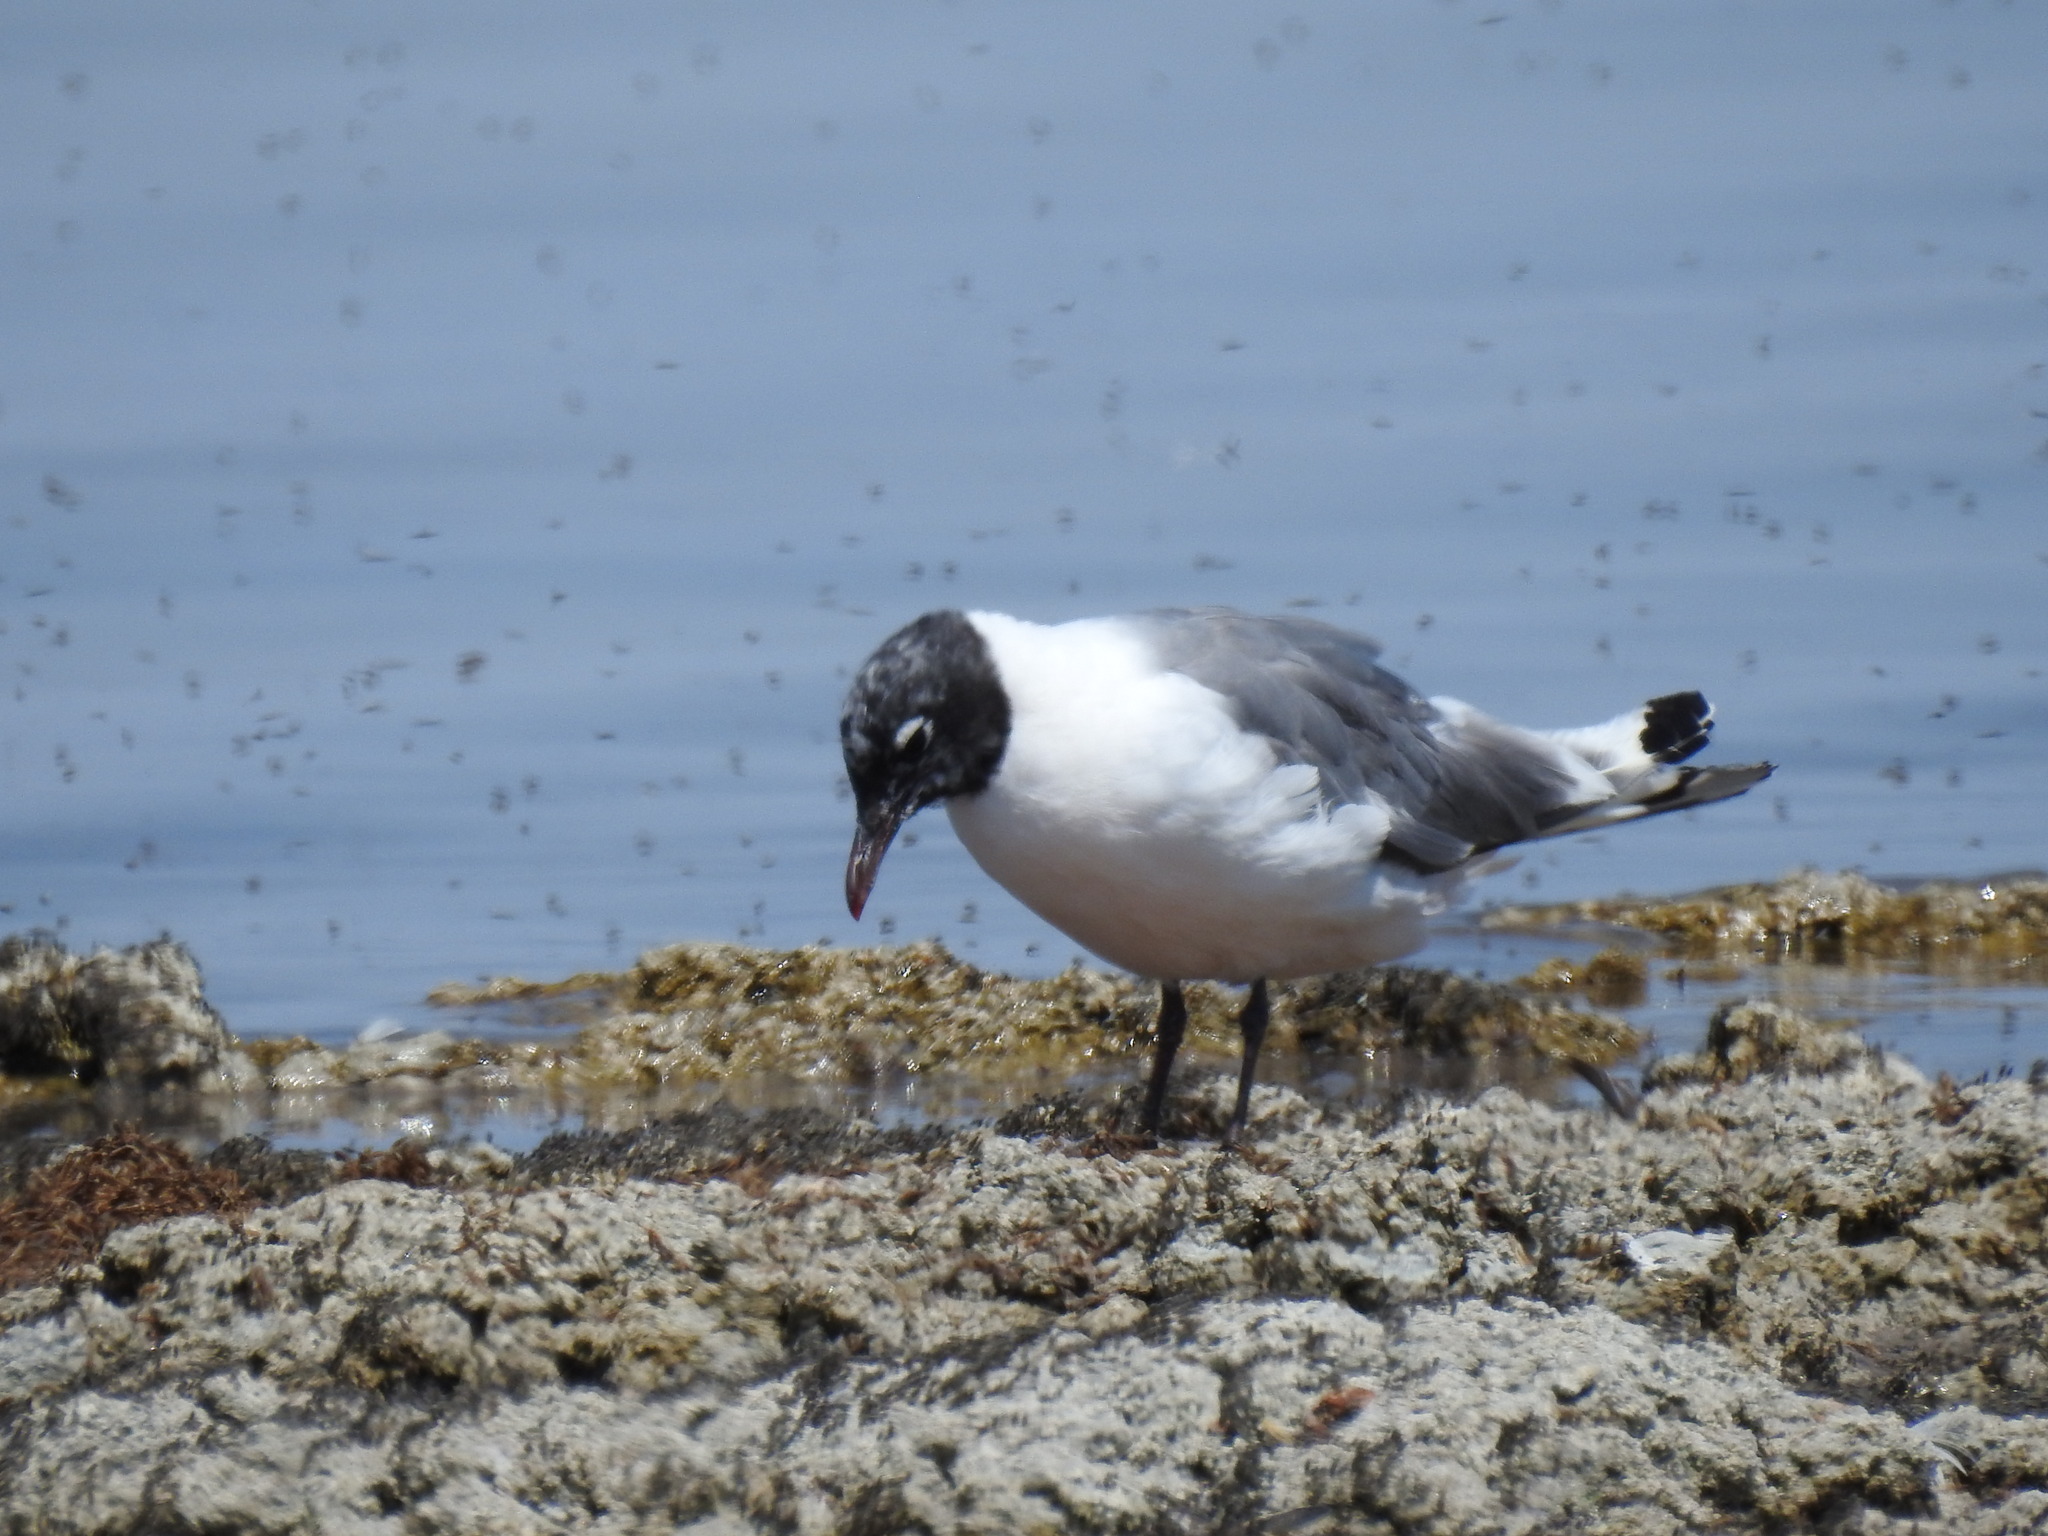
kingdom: Animalia
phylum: Chordata
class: Aves
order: Charadriiformes
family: Laridae
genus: Leucophaeus
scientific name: Leucophaeus pipixcan
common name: Franklin's gull
